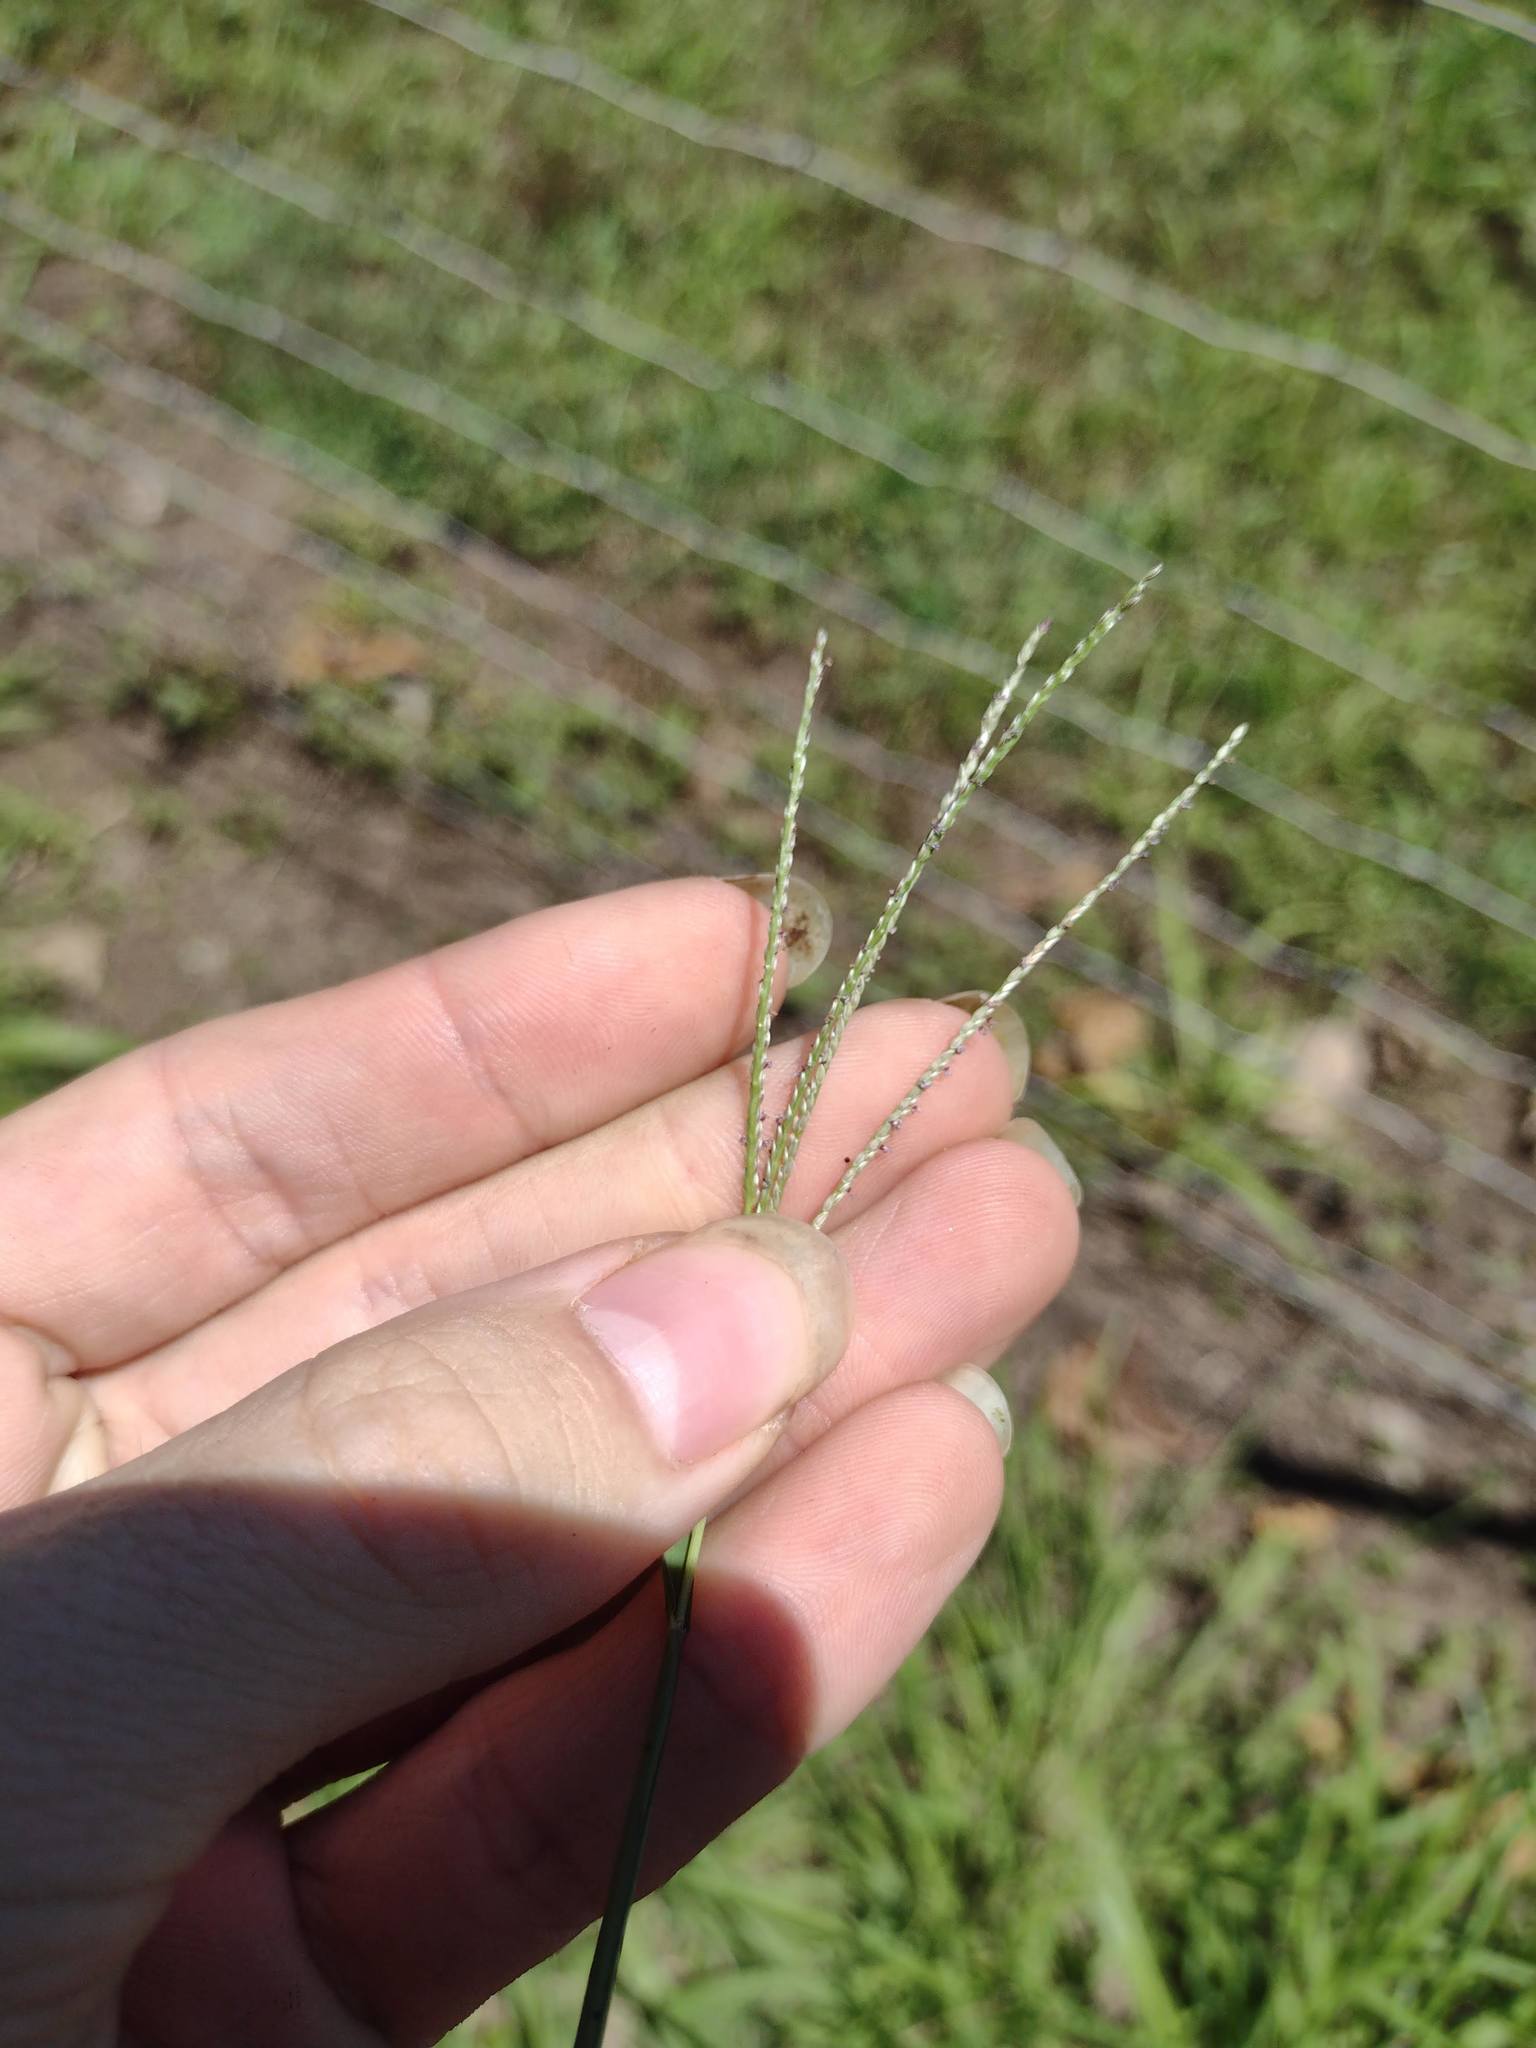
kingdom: Plantae
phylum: Tracheophyta
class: Liliopsida
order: Poales
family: Poaceae
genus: Digitaria
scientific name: Digitaria violascens
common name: Violet crabgrass
